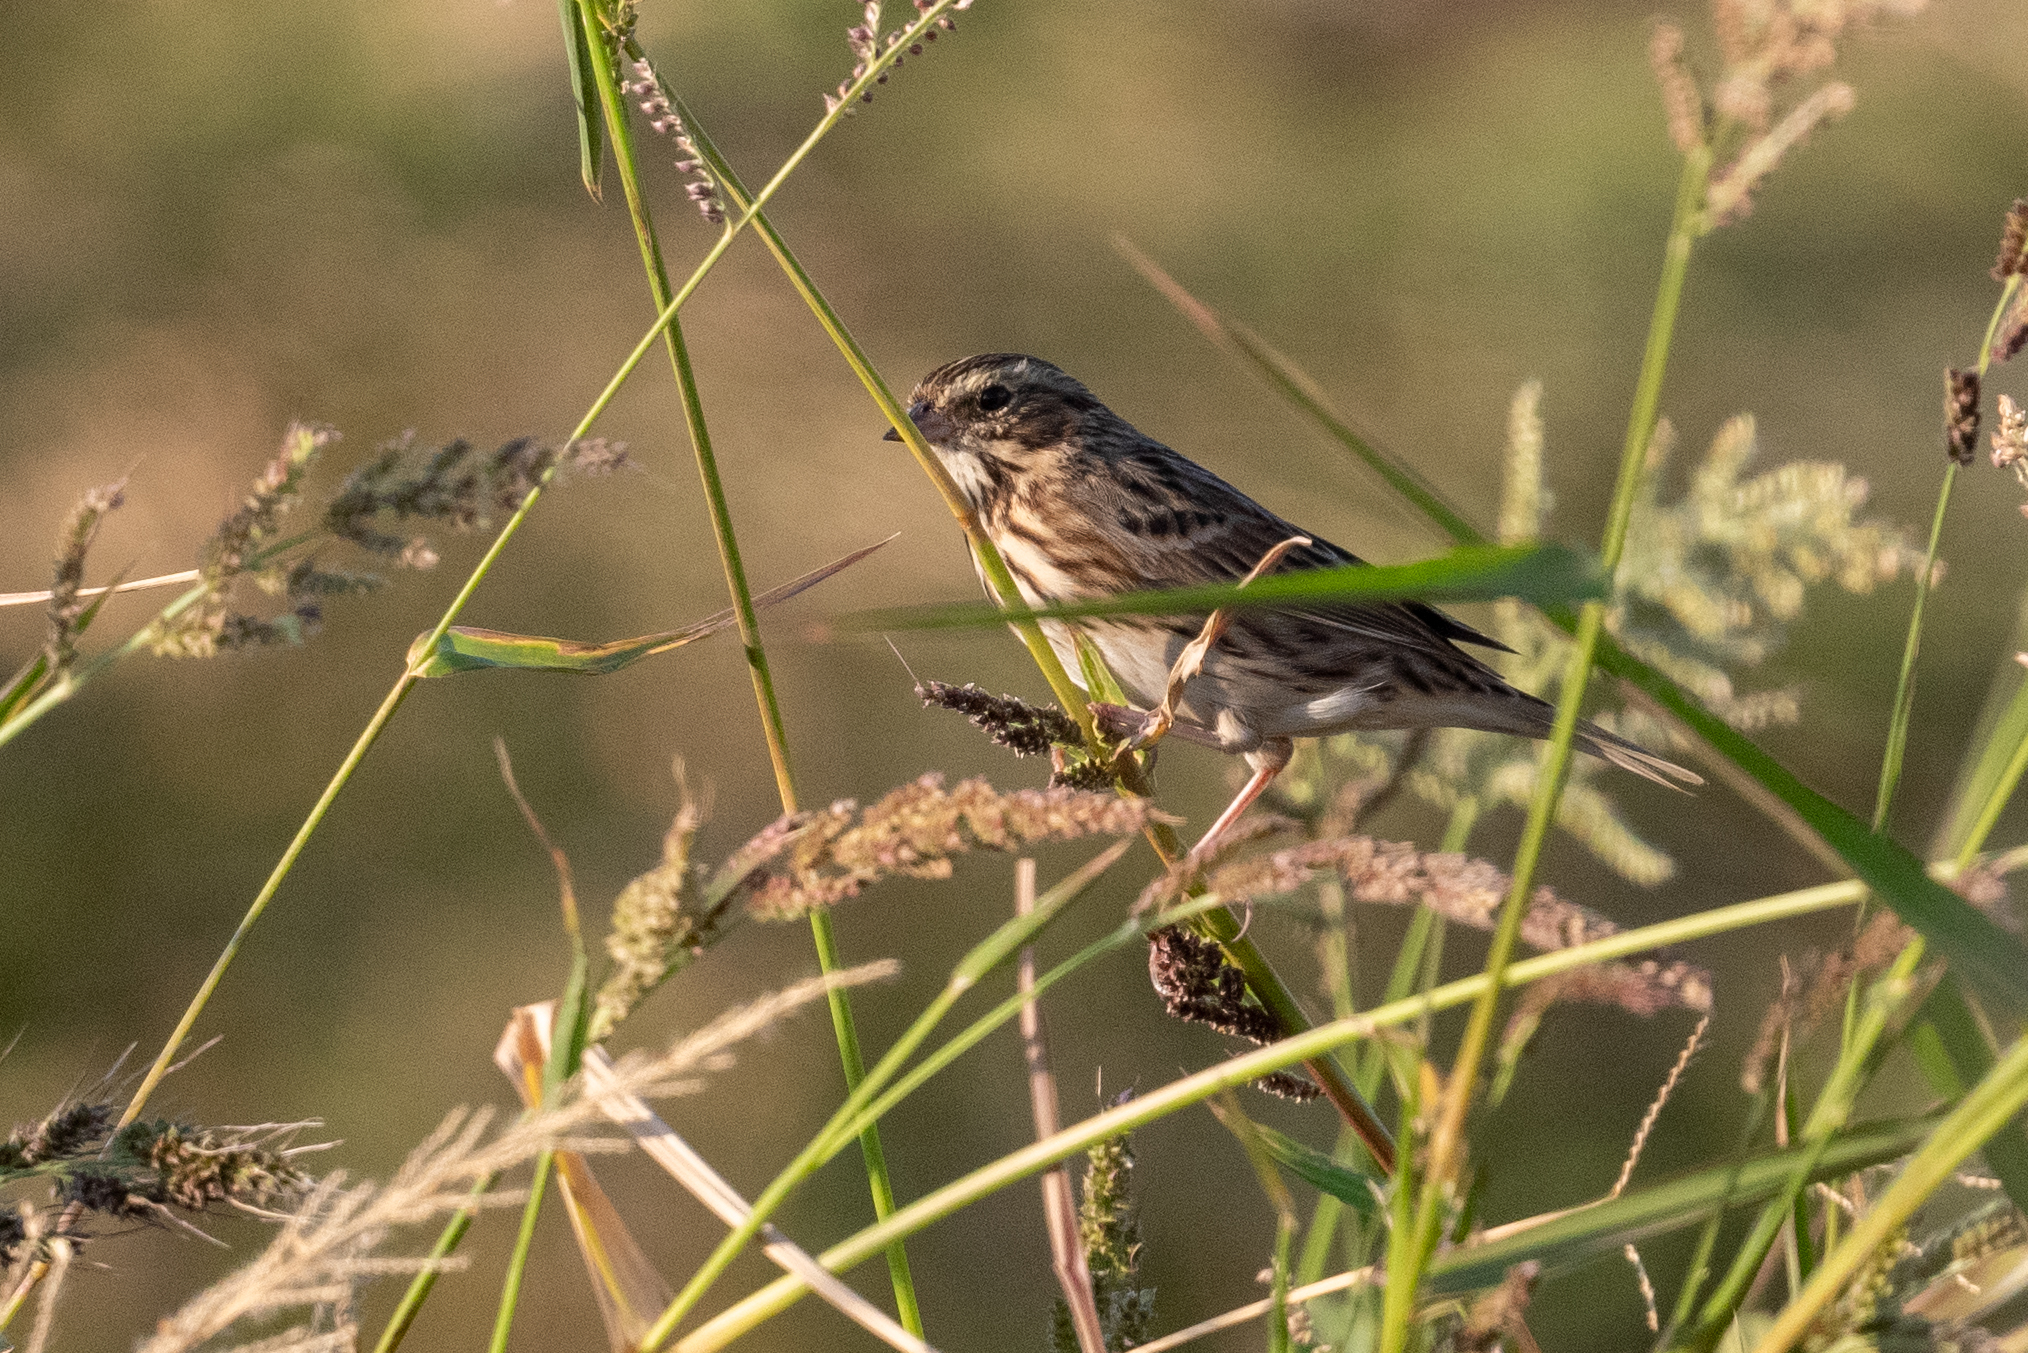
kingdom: Animalia
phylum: Chordata
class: Aves
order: Passeriformes
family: Passerellidae
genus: Passerculus
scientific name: Passerculus sandwichensis
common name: Savannah sparrow
